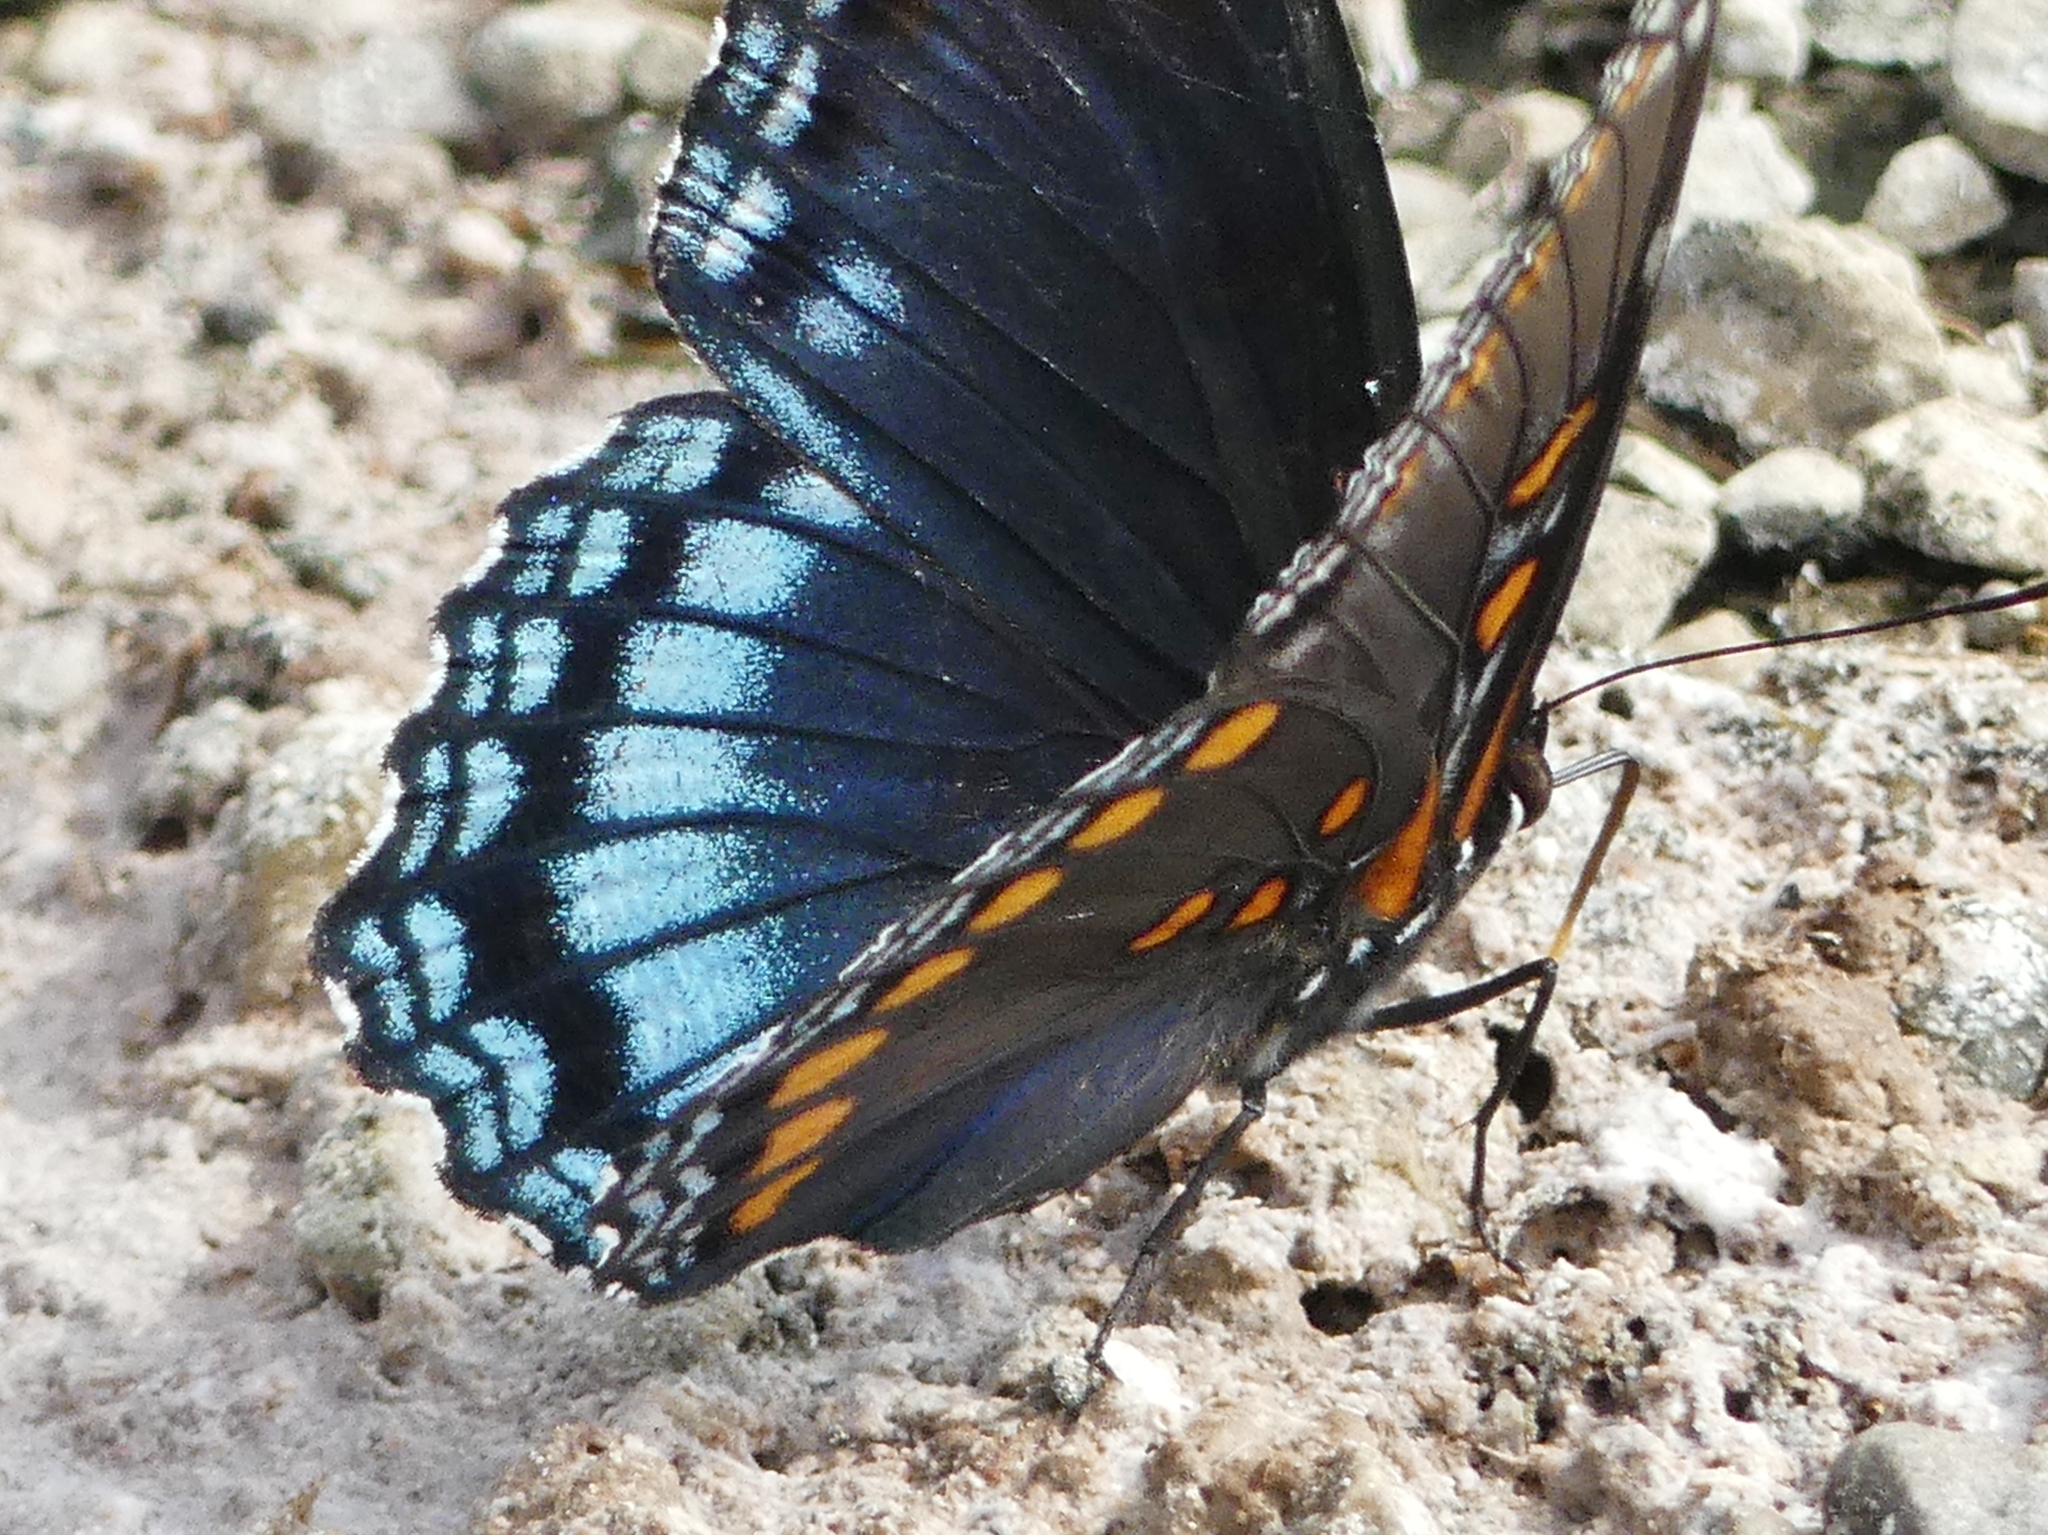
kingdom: Animalia
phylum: Arthropoda
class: Insecta
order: Lepidoptera
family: Nymphalidae
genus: Limenitis
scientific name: Limenitis astyanax
